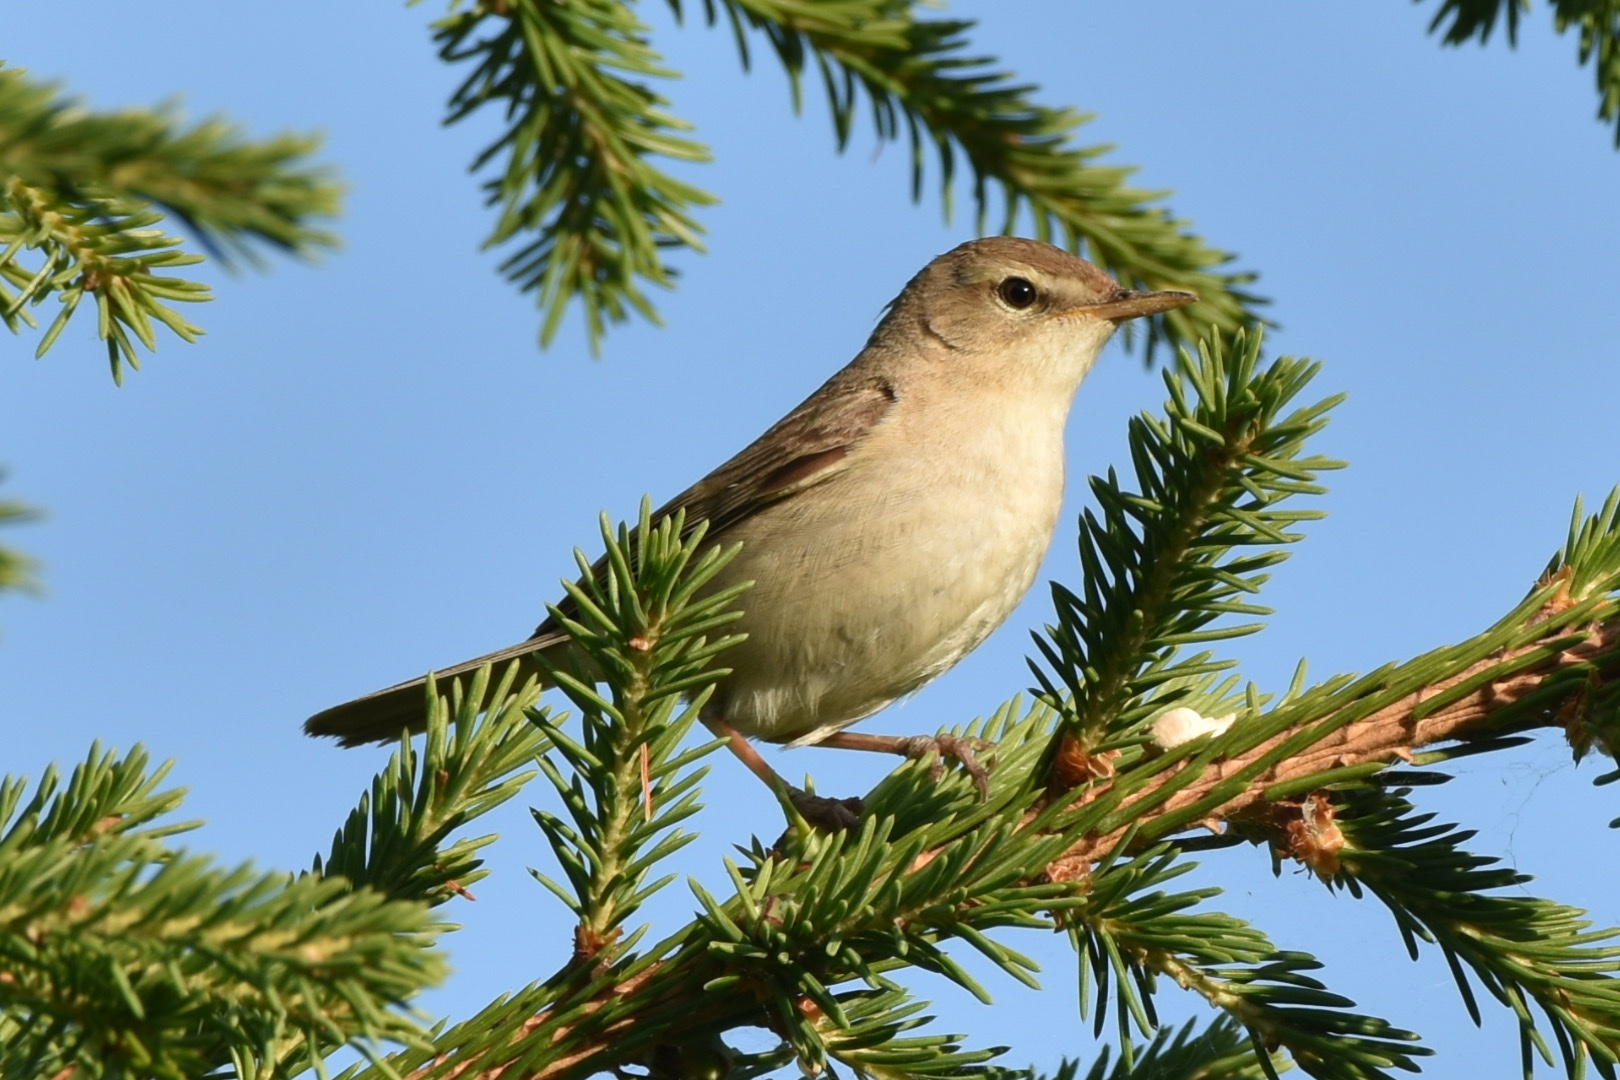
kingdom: Animalia
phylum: Chordata
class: Aves
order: Passeriformes
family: Acrocephalidae
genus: Iduna
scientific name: Iduna caligata
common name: Booted warbler
